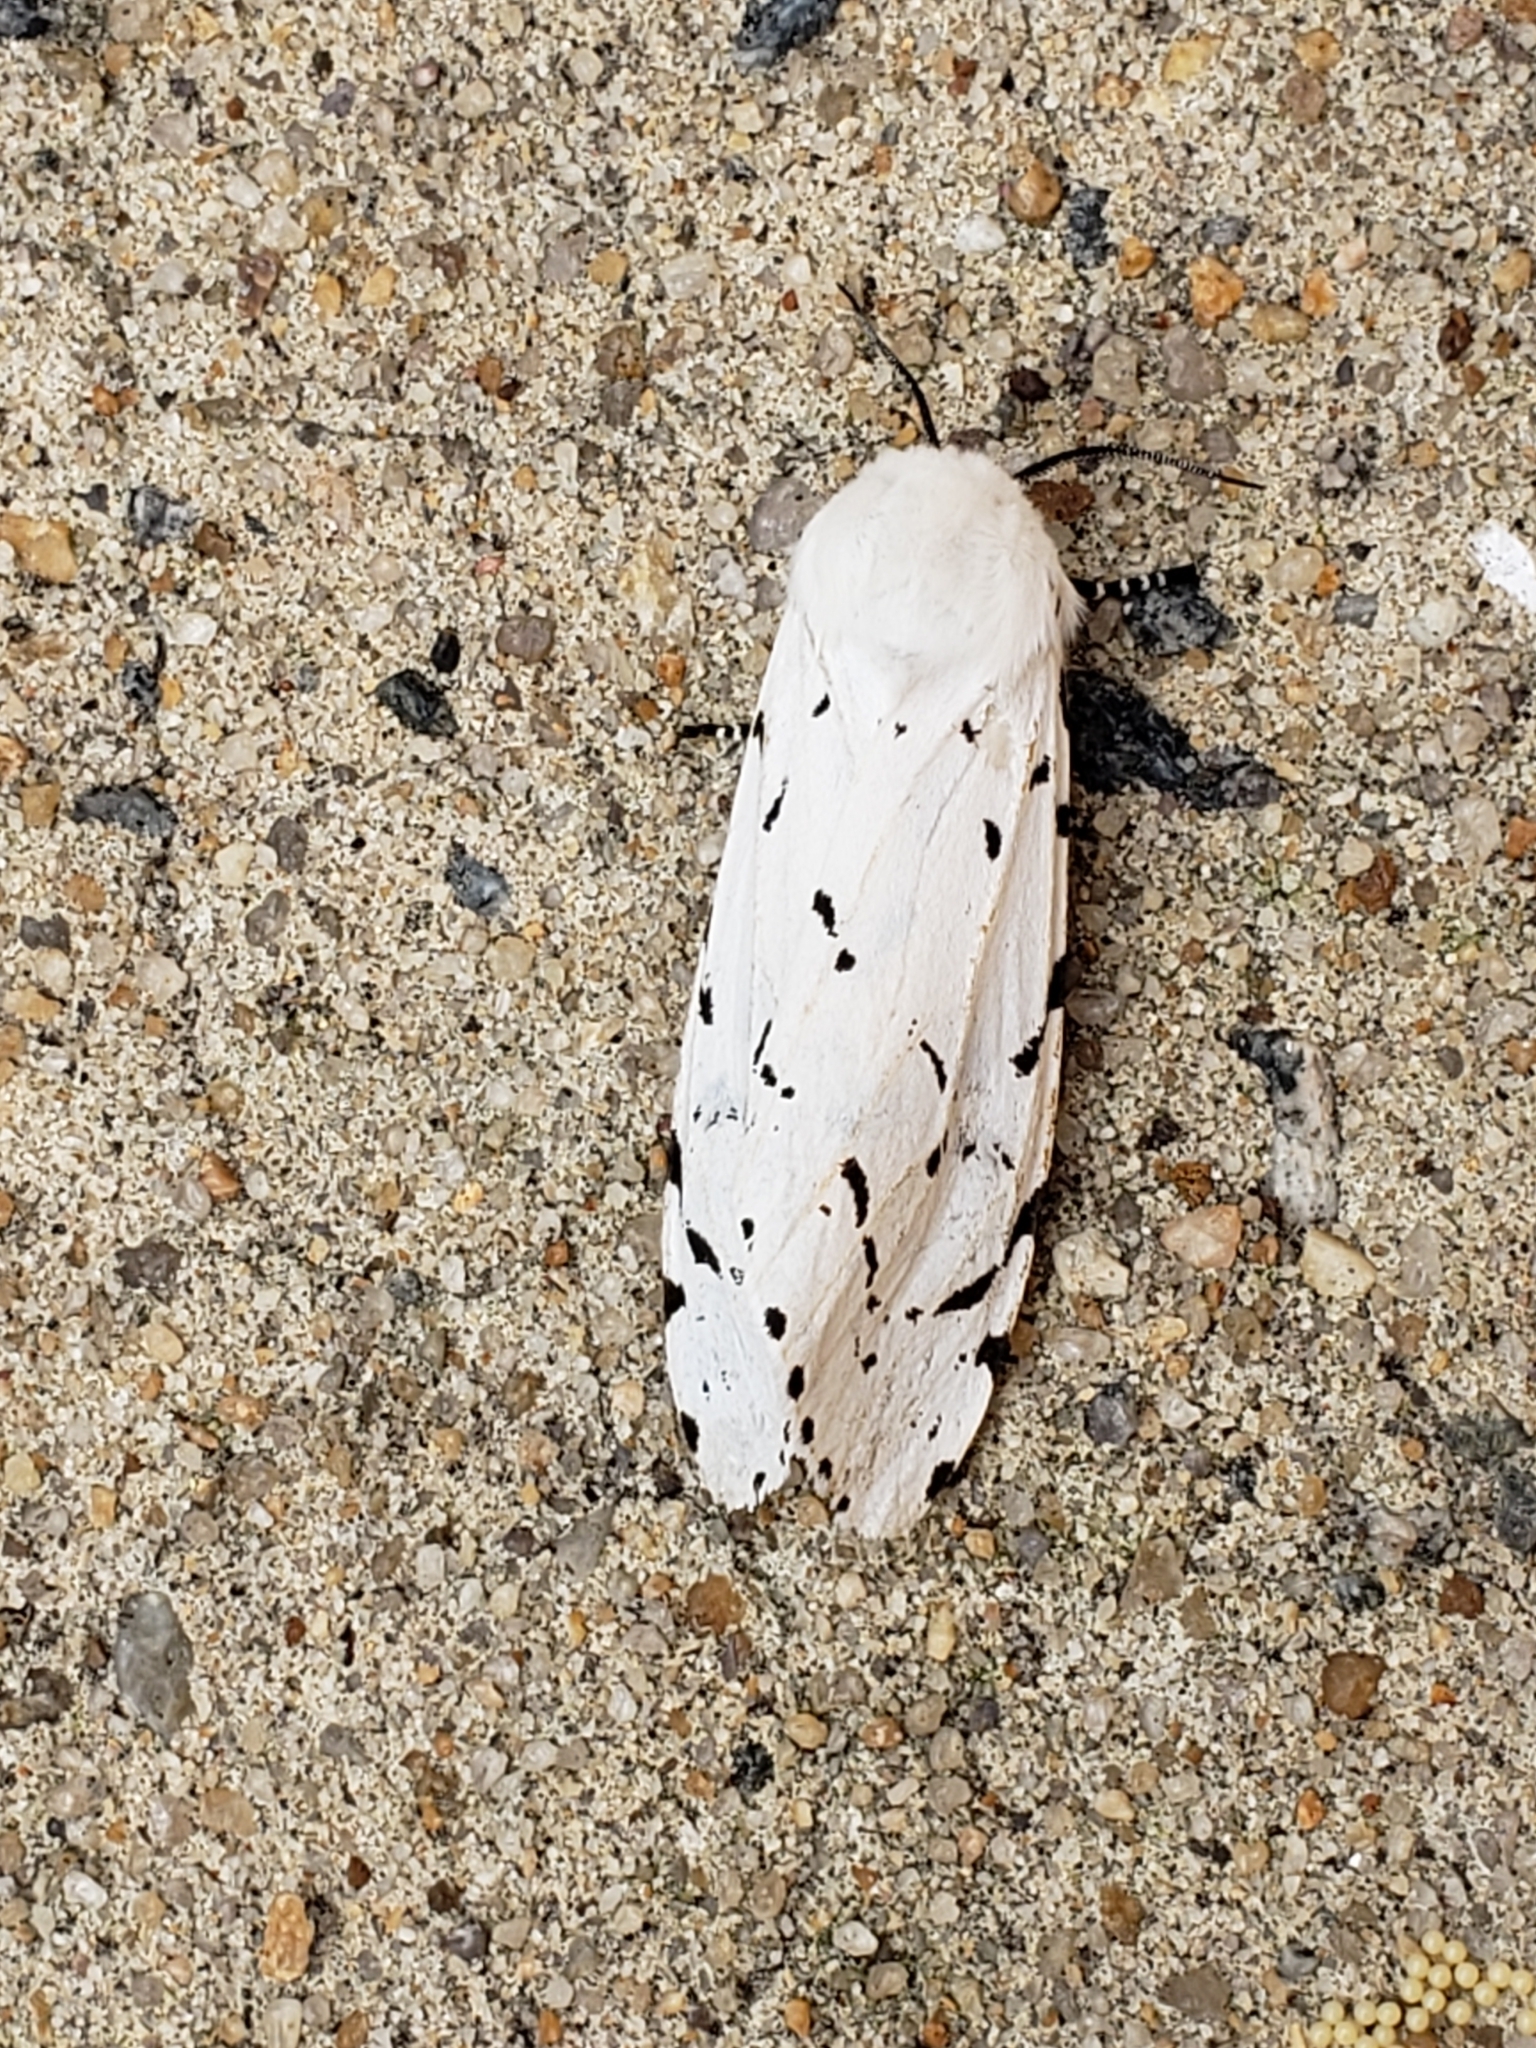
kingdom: Animalia
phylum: Arthropoda
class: Insecta
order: Lepidoptera
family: Erebidae
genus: Estigmene
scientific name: Estigmene acrea
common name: Salt marsh moth
